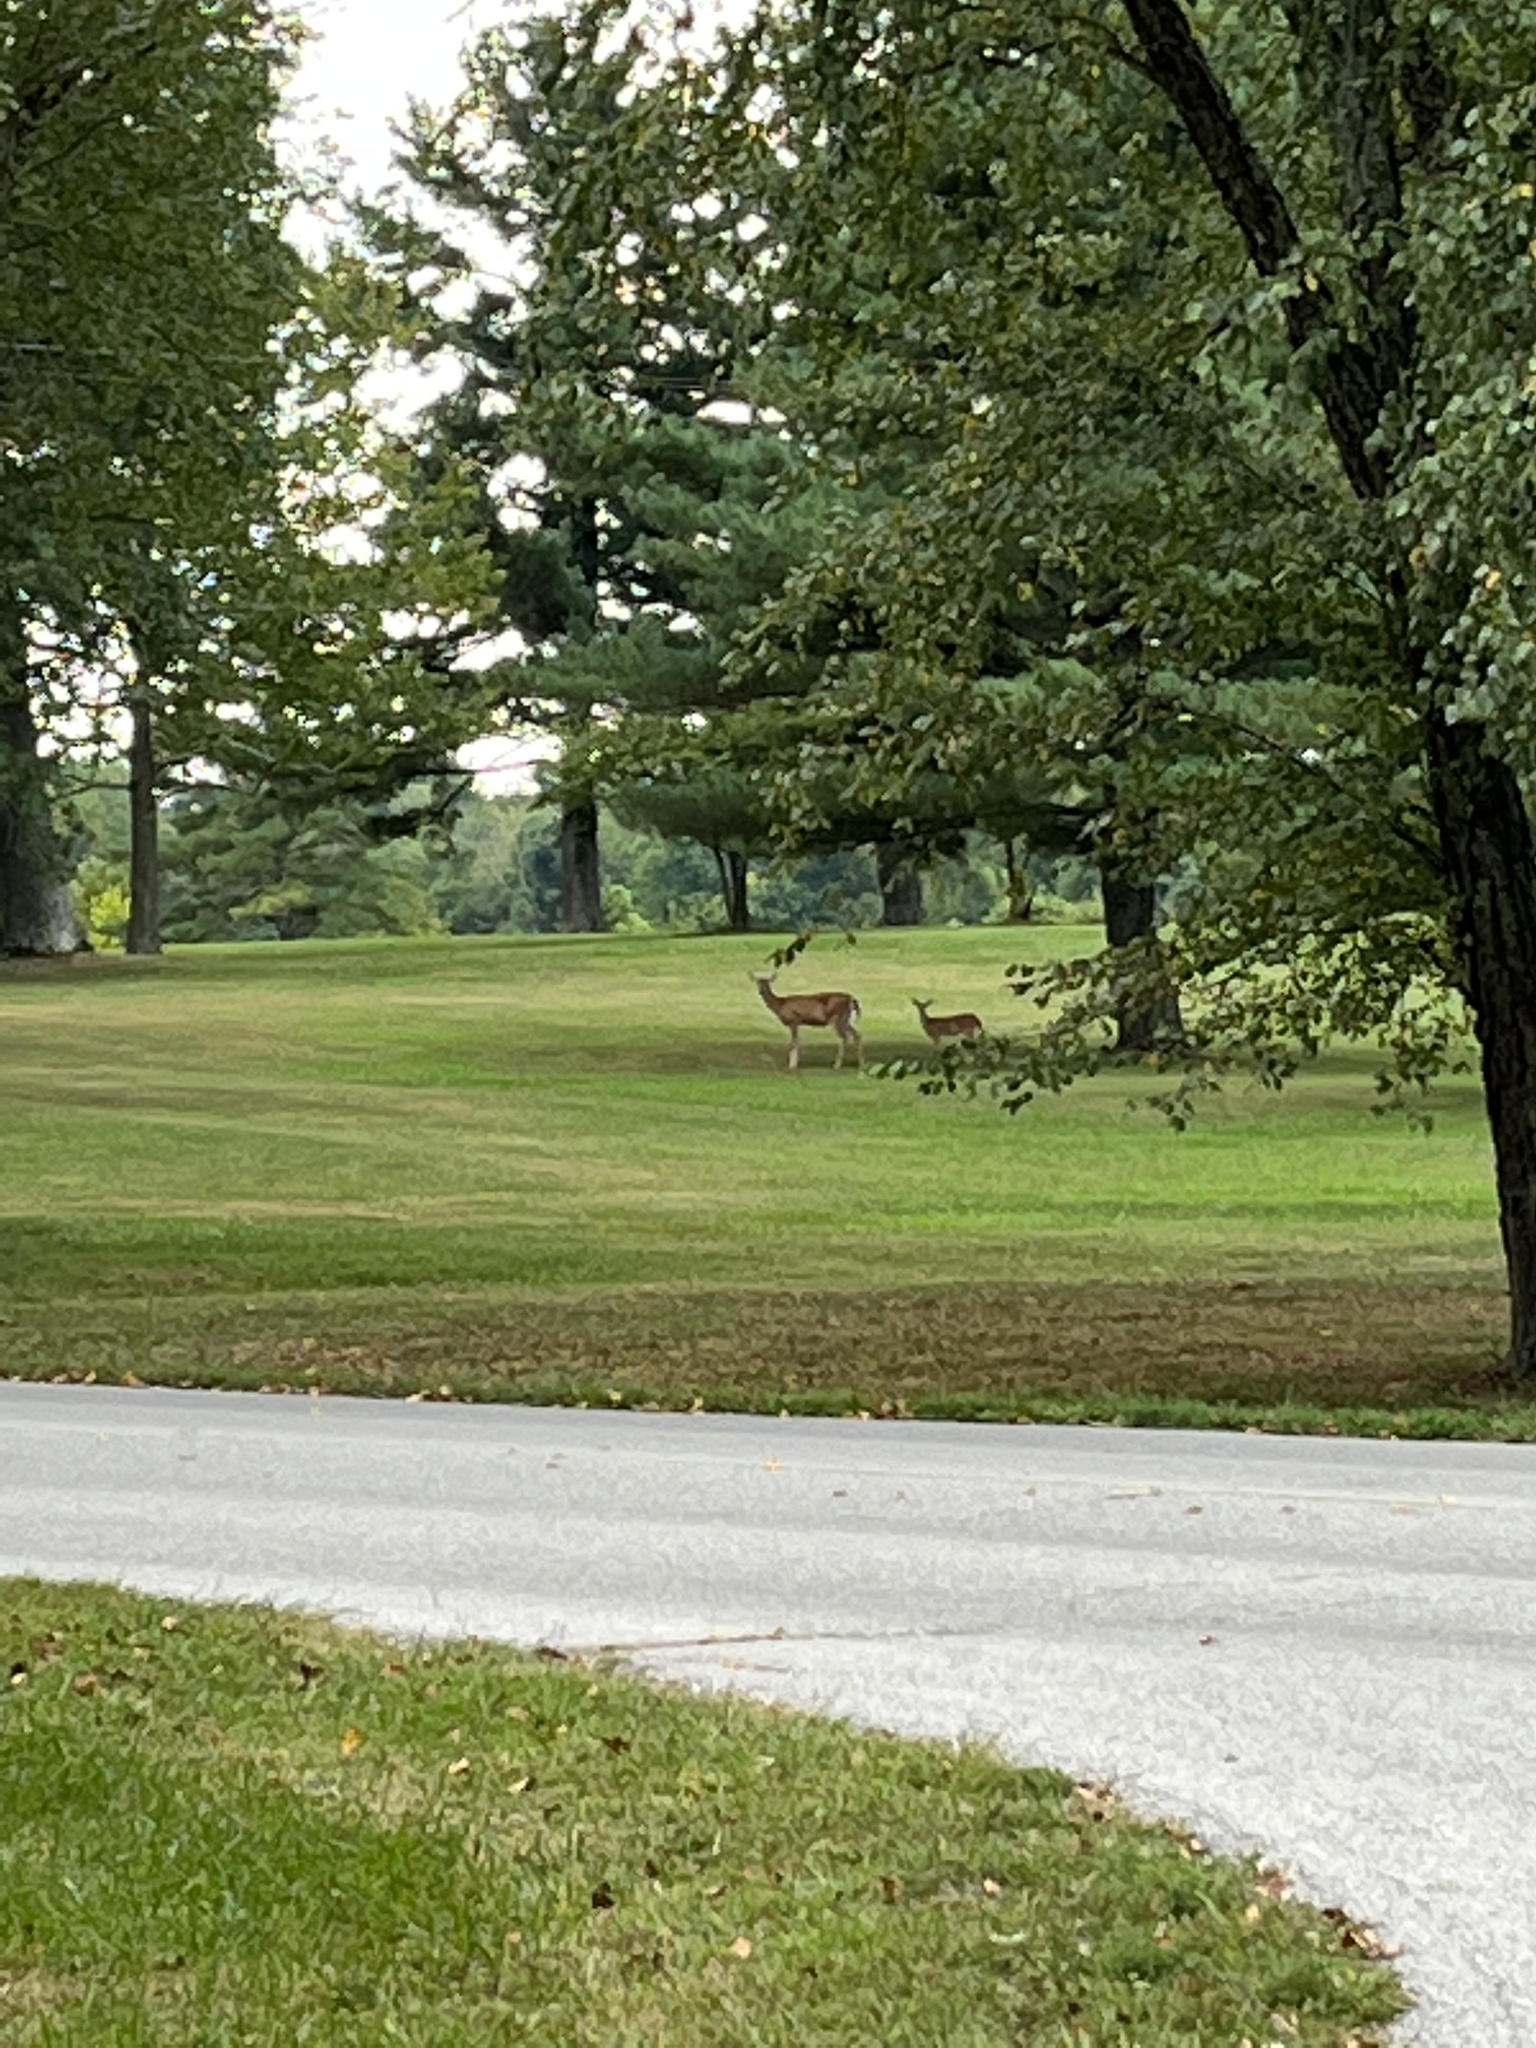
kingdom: Animalia
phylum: Chordata
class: Mammalia
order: Artiodactyla
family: Cervidae
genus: Odocoileus
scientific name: Odocoileus virginianus
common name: White-tailed deer
